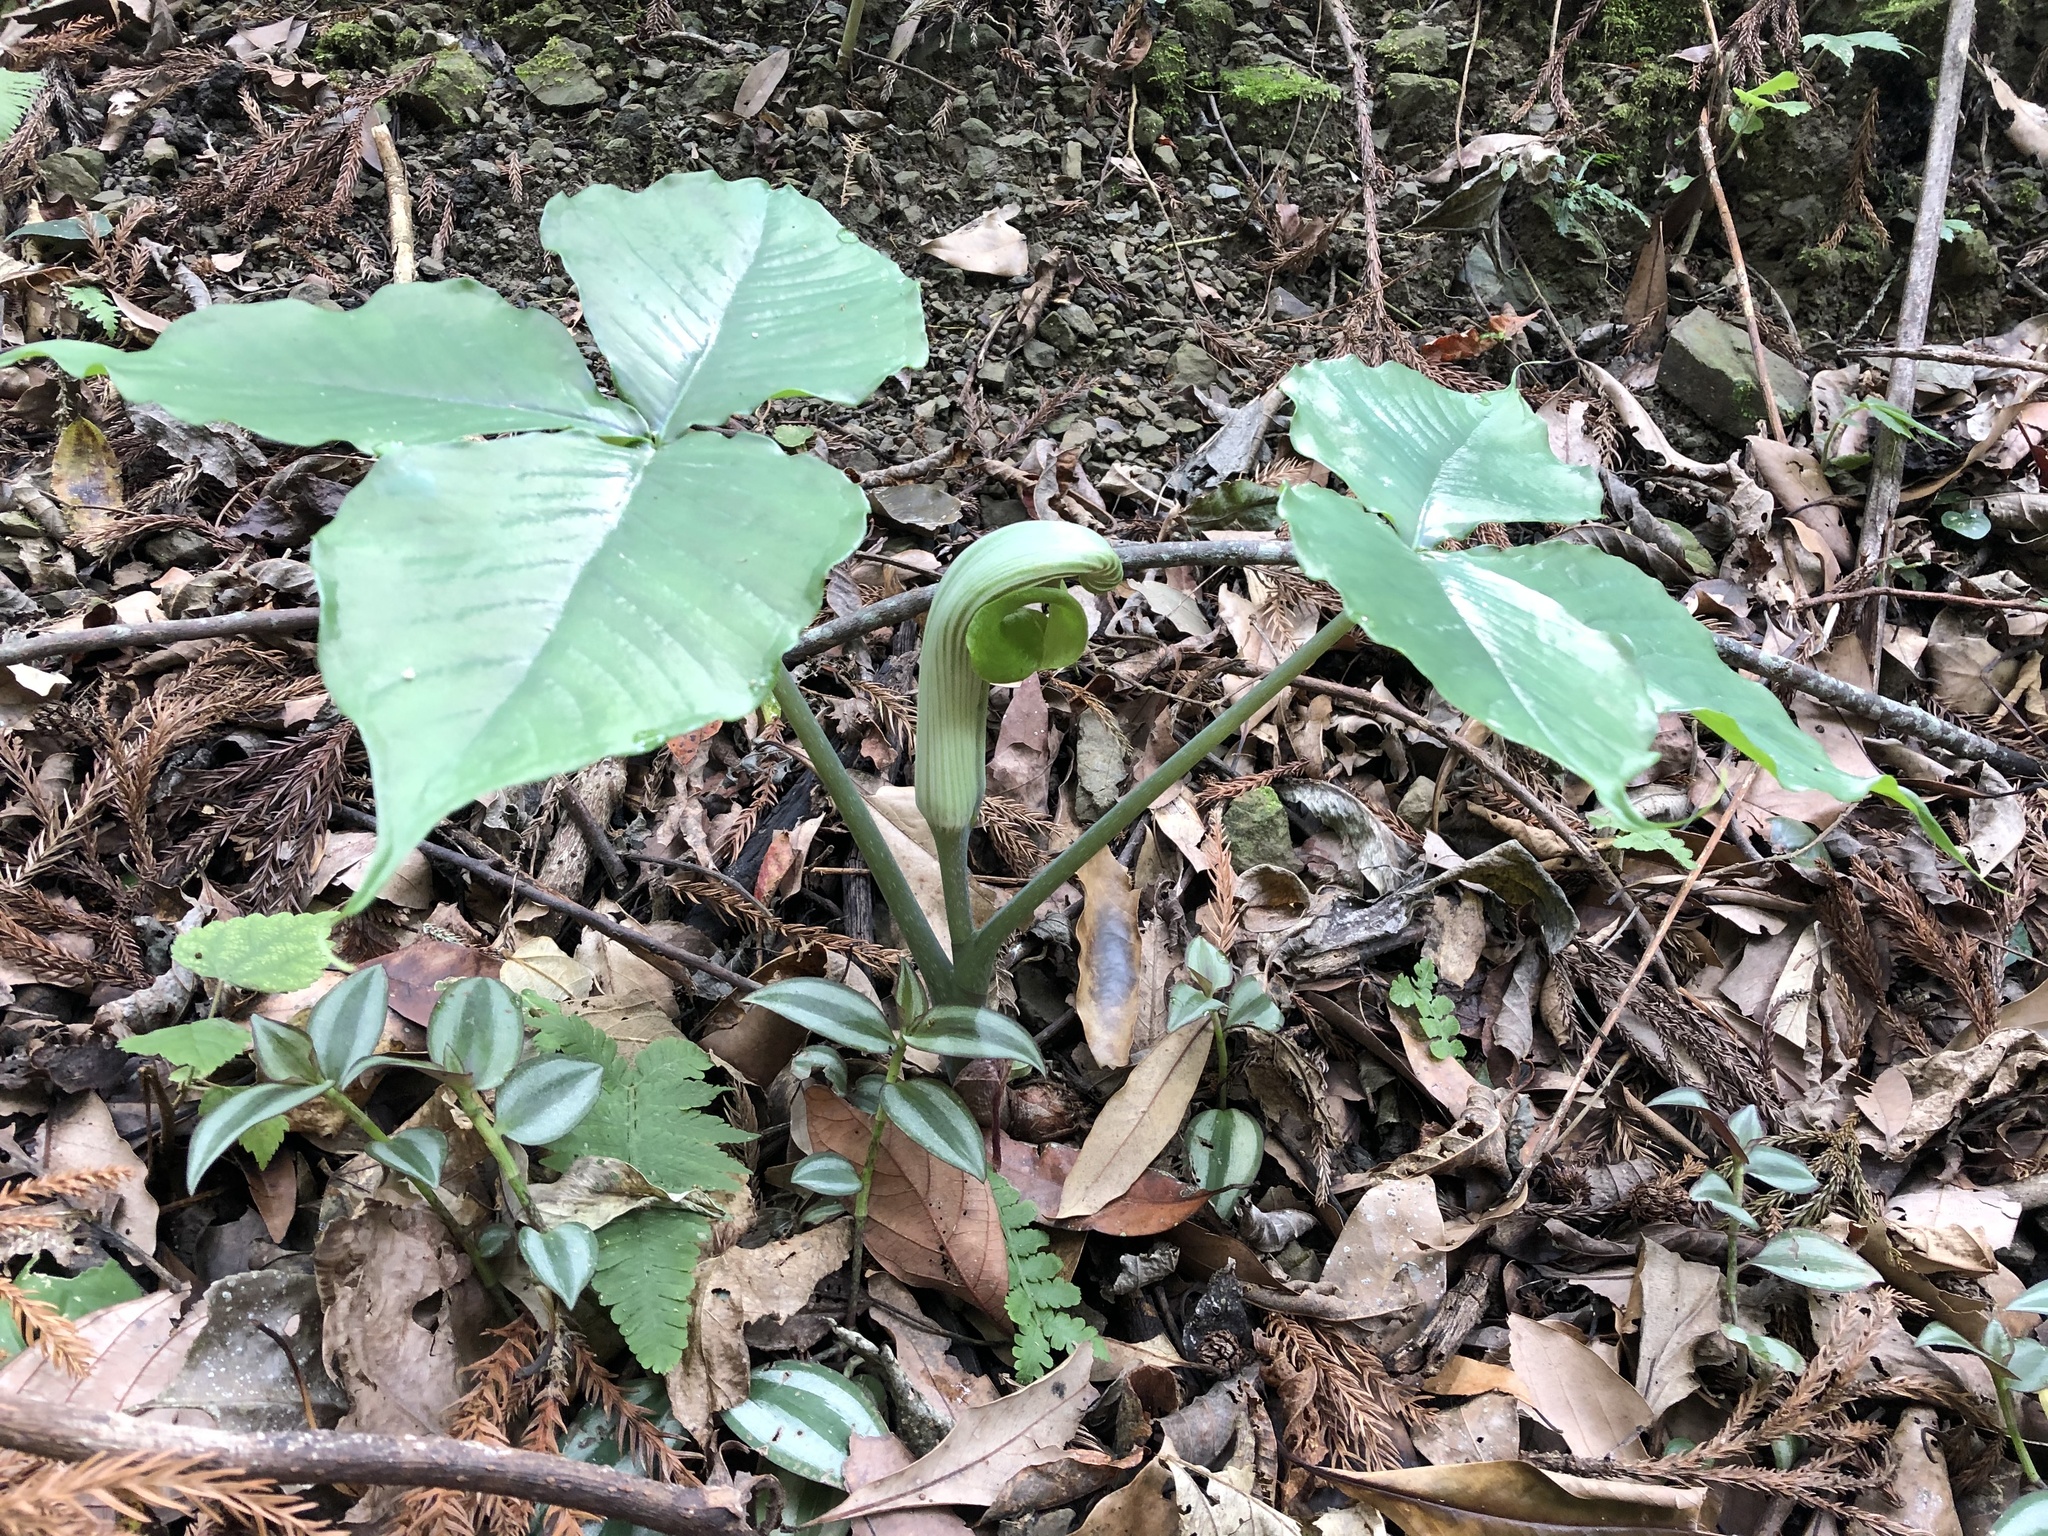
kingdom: Plantae
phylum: Tracheophyta
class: Liliopsida
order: Alismatales
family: Araceae
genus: Arisaema
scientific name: Arisaema ringens
